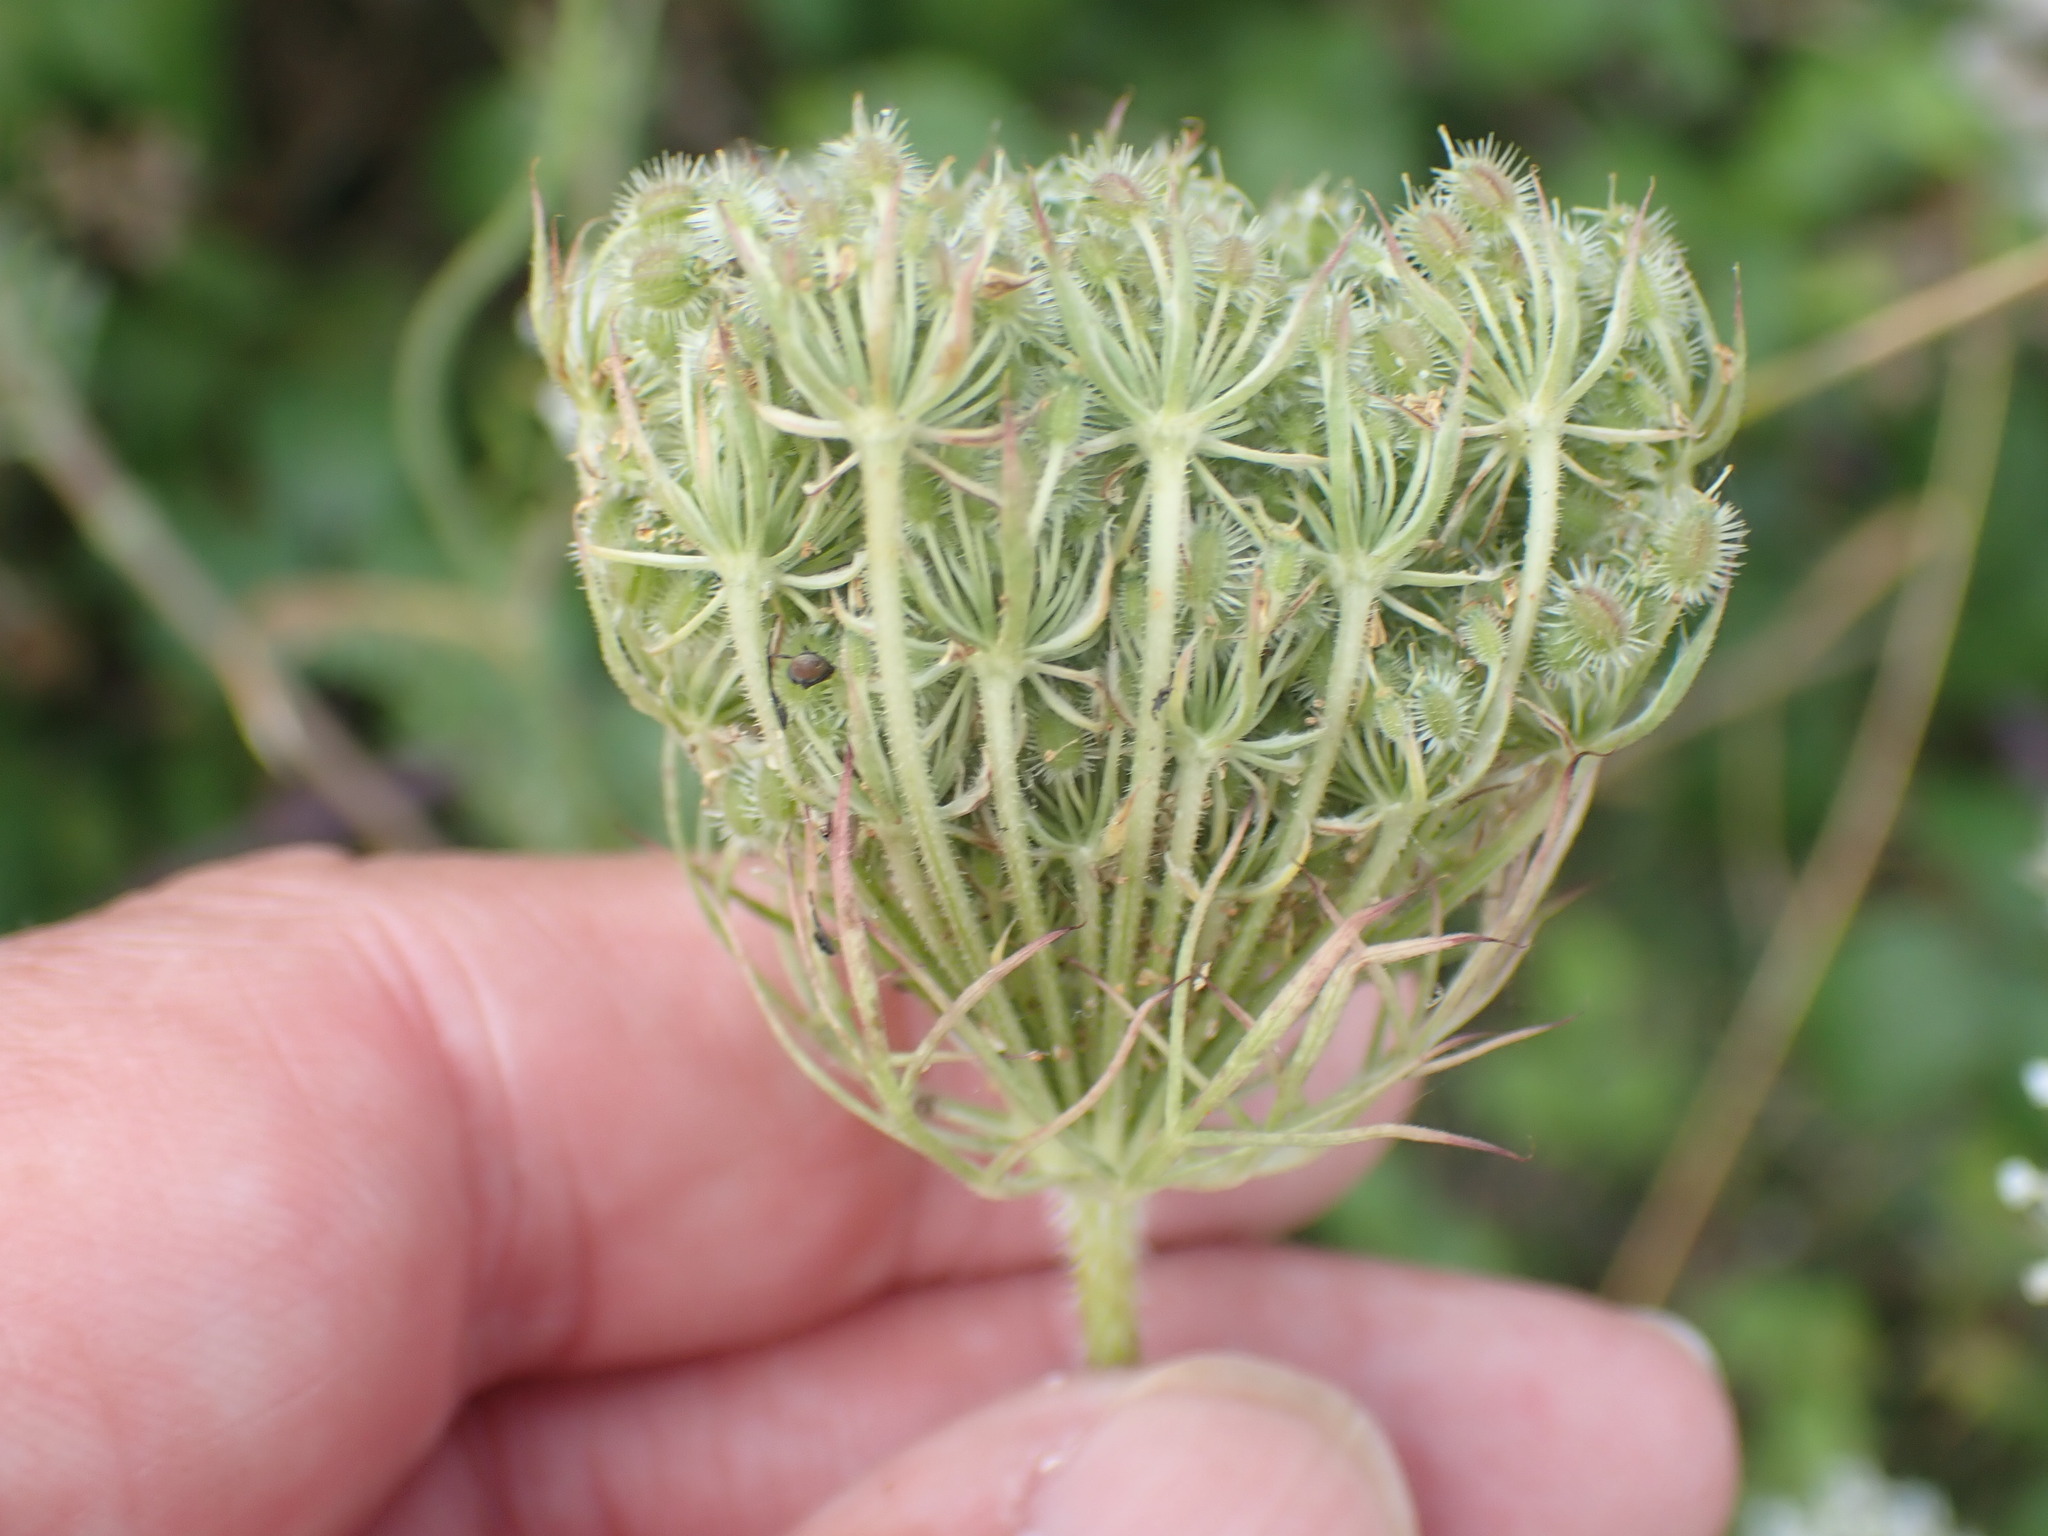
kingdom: Plantae
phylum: Tracheophyta
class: Magnoliopsida
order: Apiales
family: Apiaceae
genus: Daucus
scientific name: Daucus carota
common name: Wild carrot
